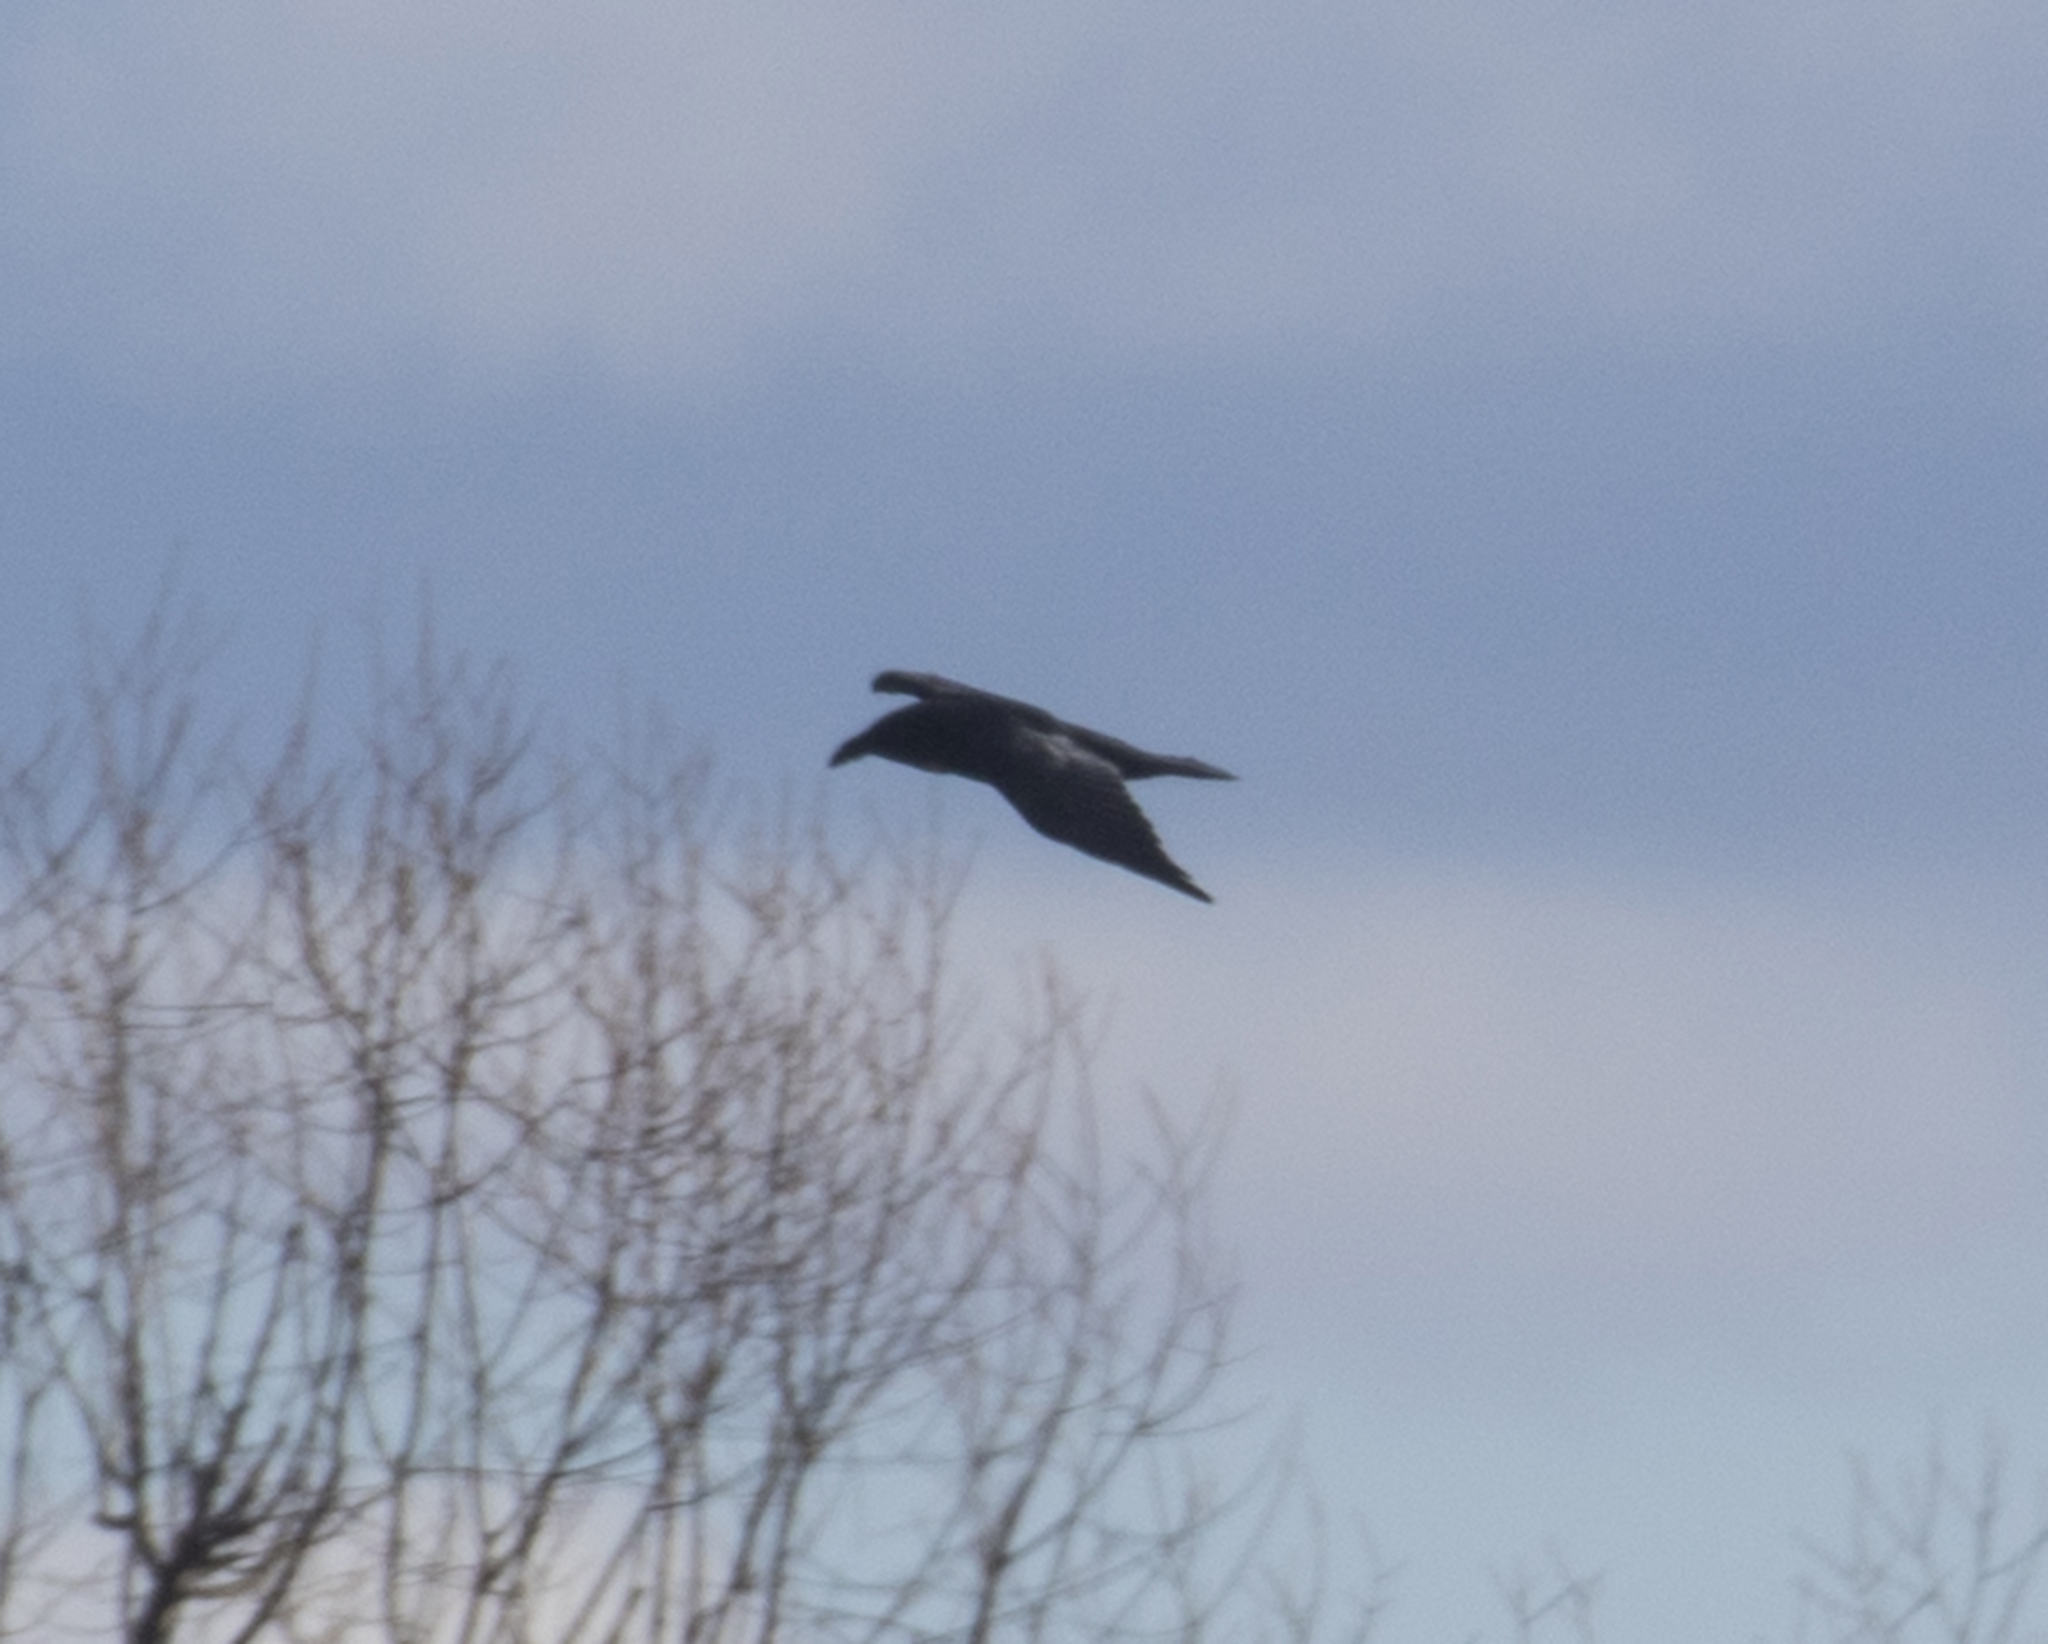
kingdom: Animalia
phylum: Chordata
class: Aves
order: Passeriformes
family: Corvidae
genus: Corvus
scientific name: Corvus corax
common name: Common raven
